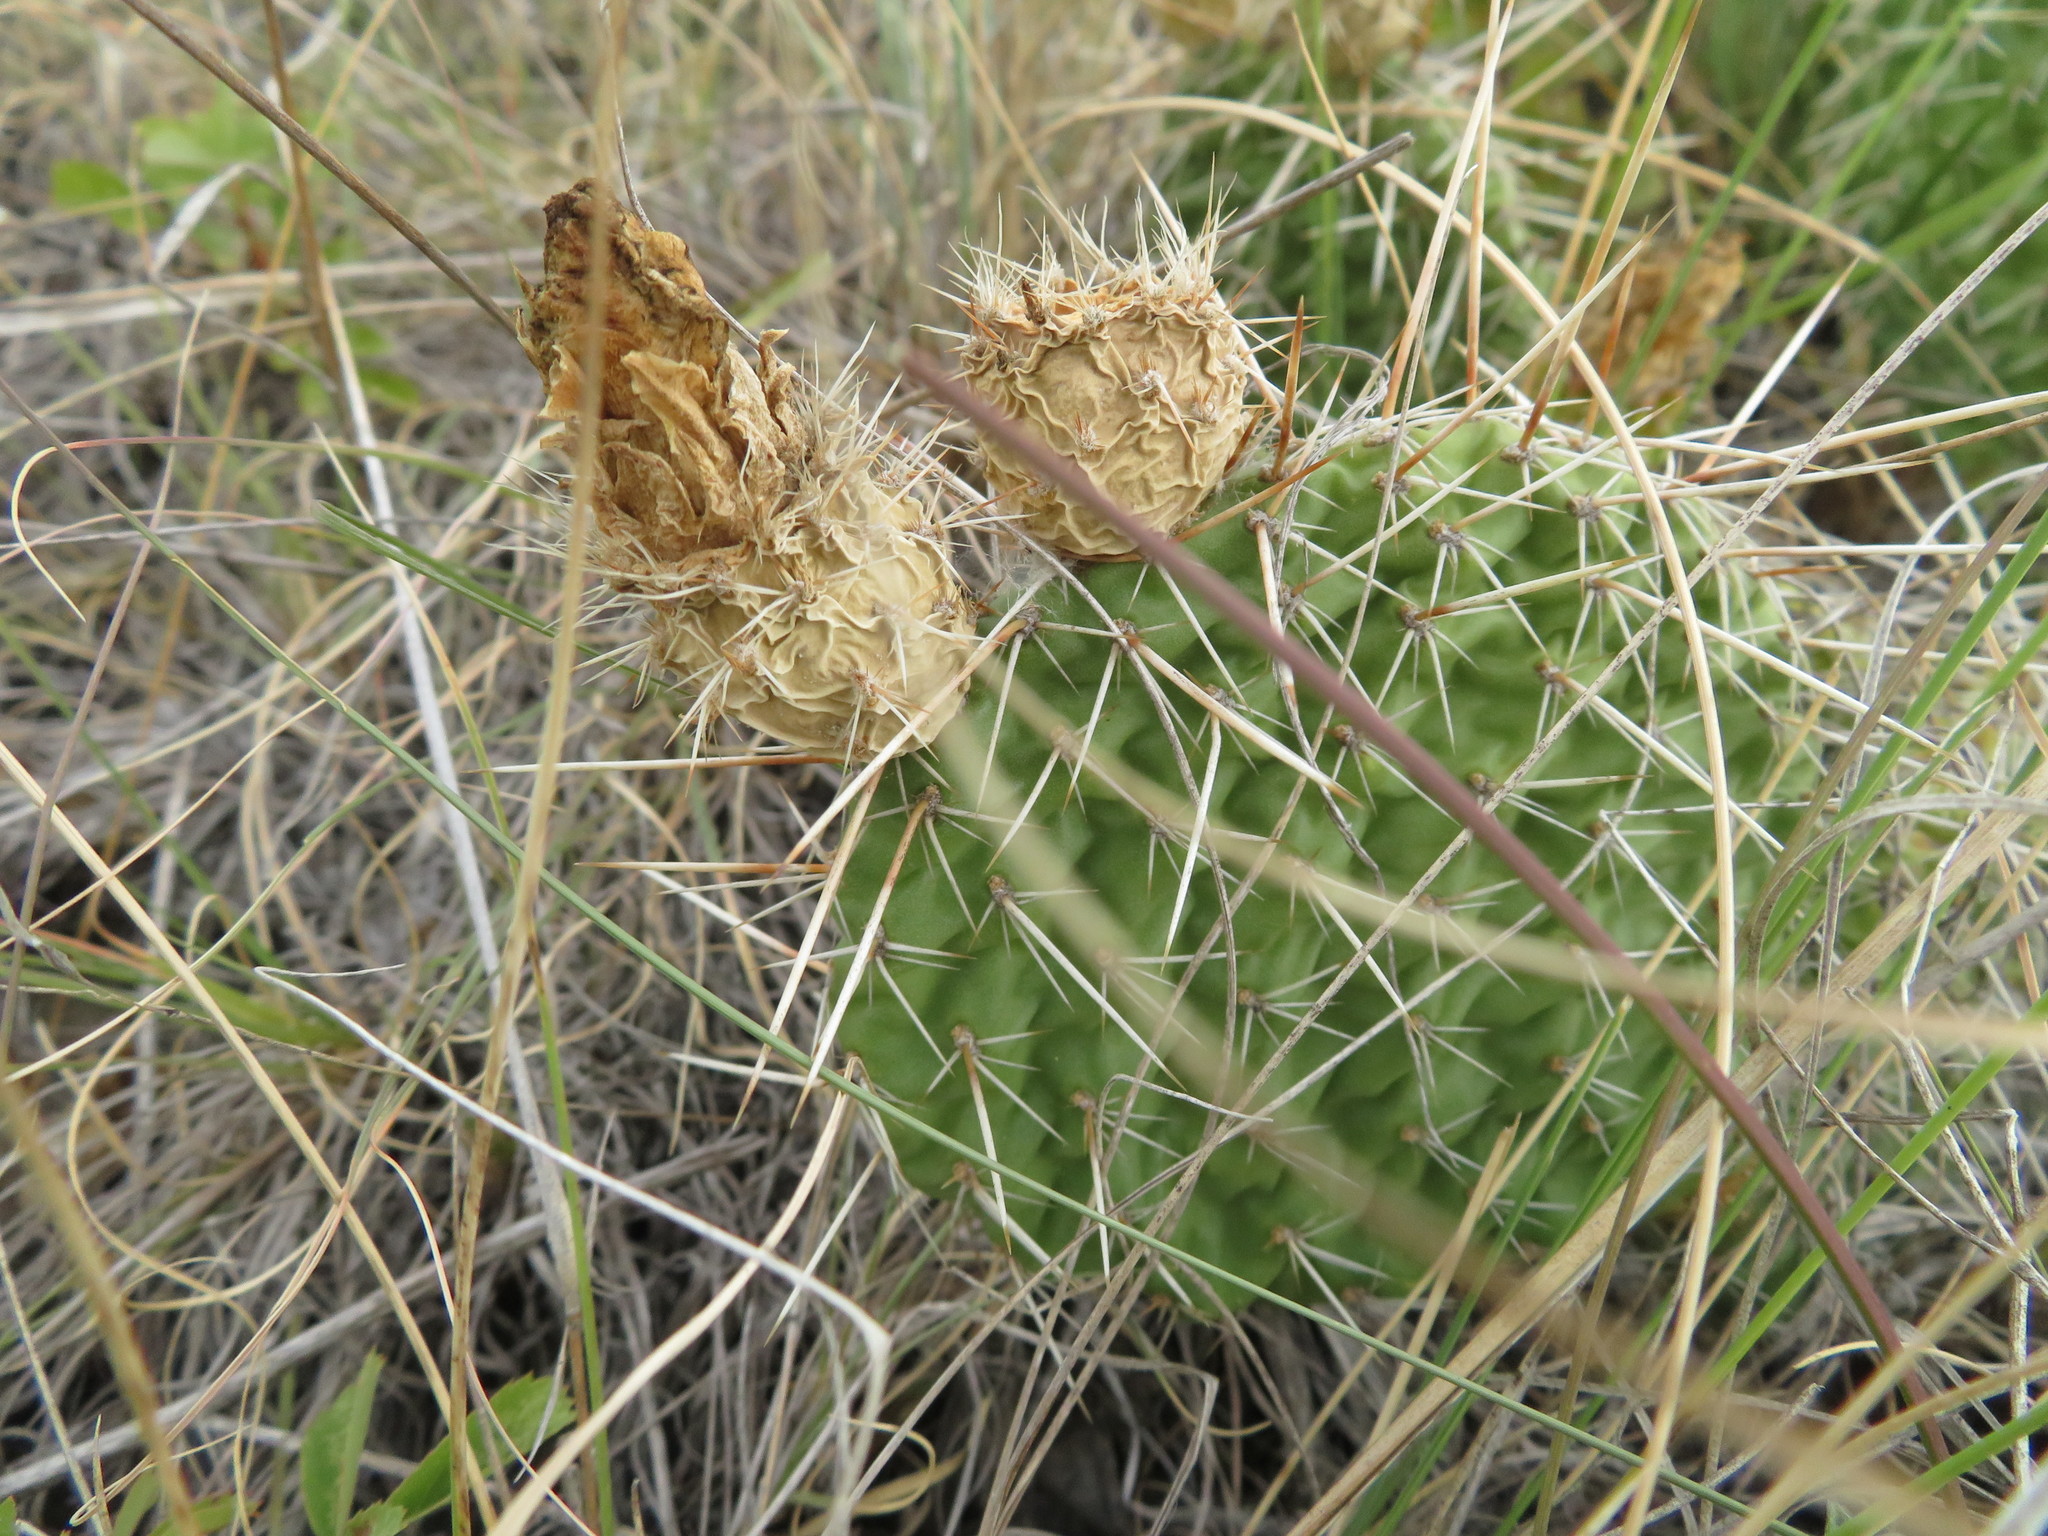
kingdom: Plantae
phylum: Tracheophyta
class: Magnoliopsida
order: Caryophyllales
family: Cactaceae
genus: Opuntia
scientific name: Opuntia polyacantha
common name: Plains prickly-pear
